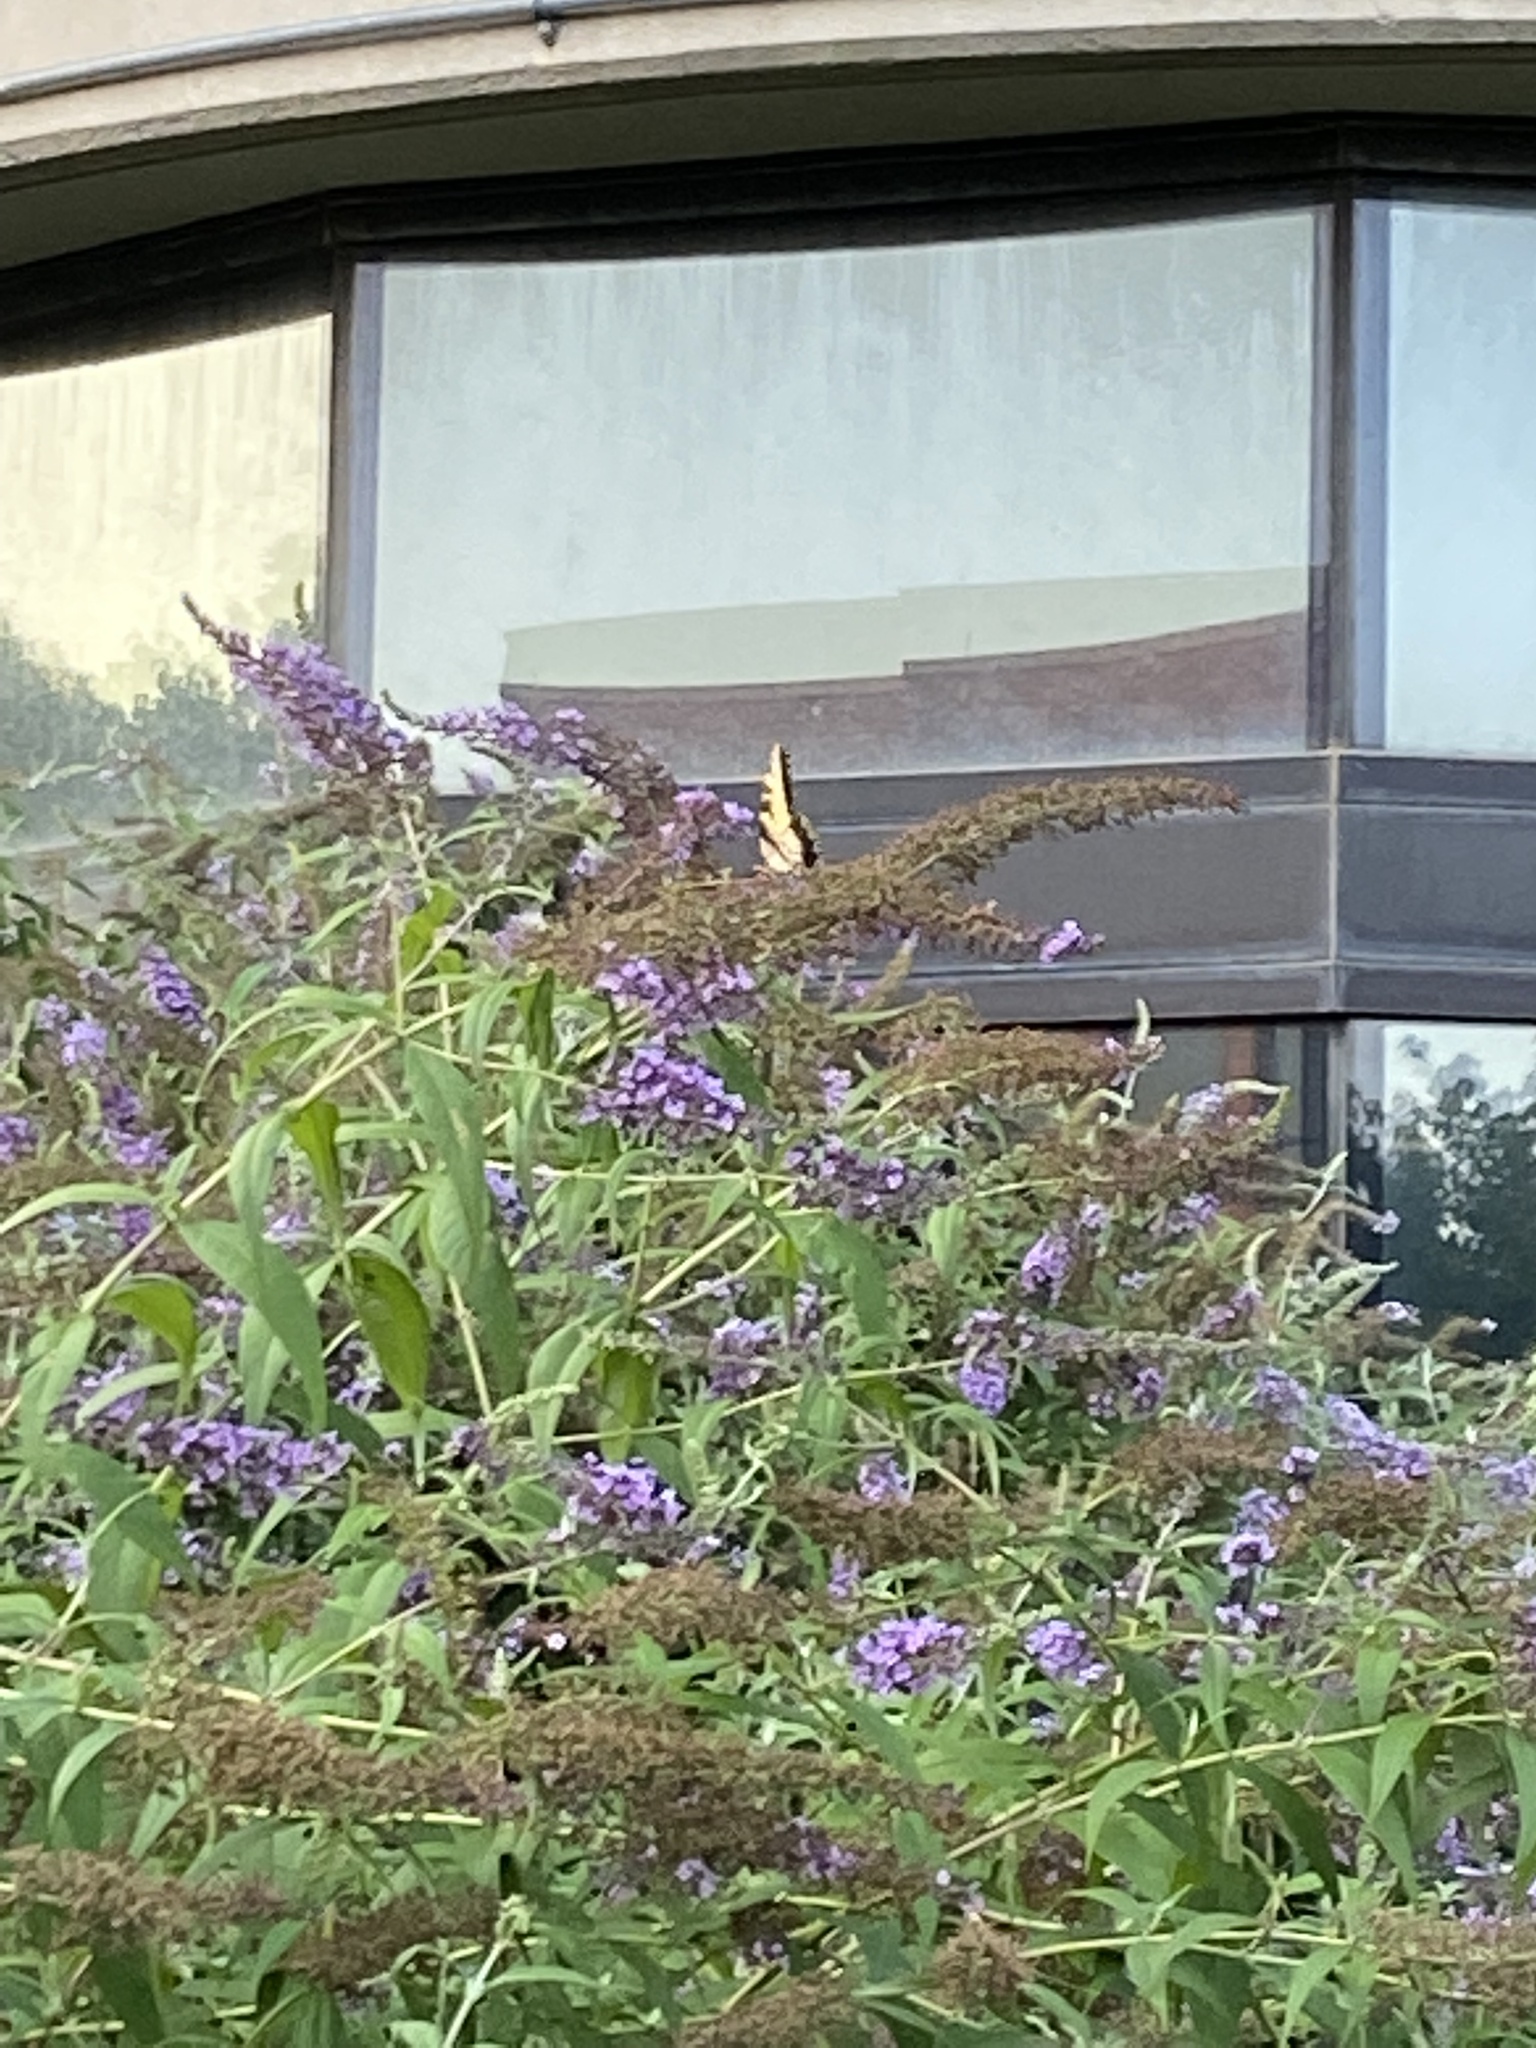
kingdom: Animalia
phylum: Arthropoda
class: Insecta
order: Lepidoptera
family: Papilionidae
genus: Papilio
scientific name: Papilio glaucus
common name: Tiger swallowtail
